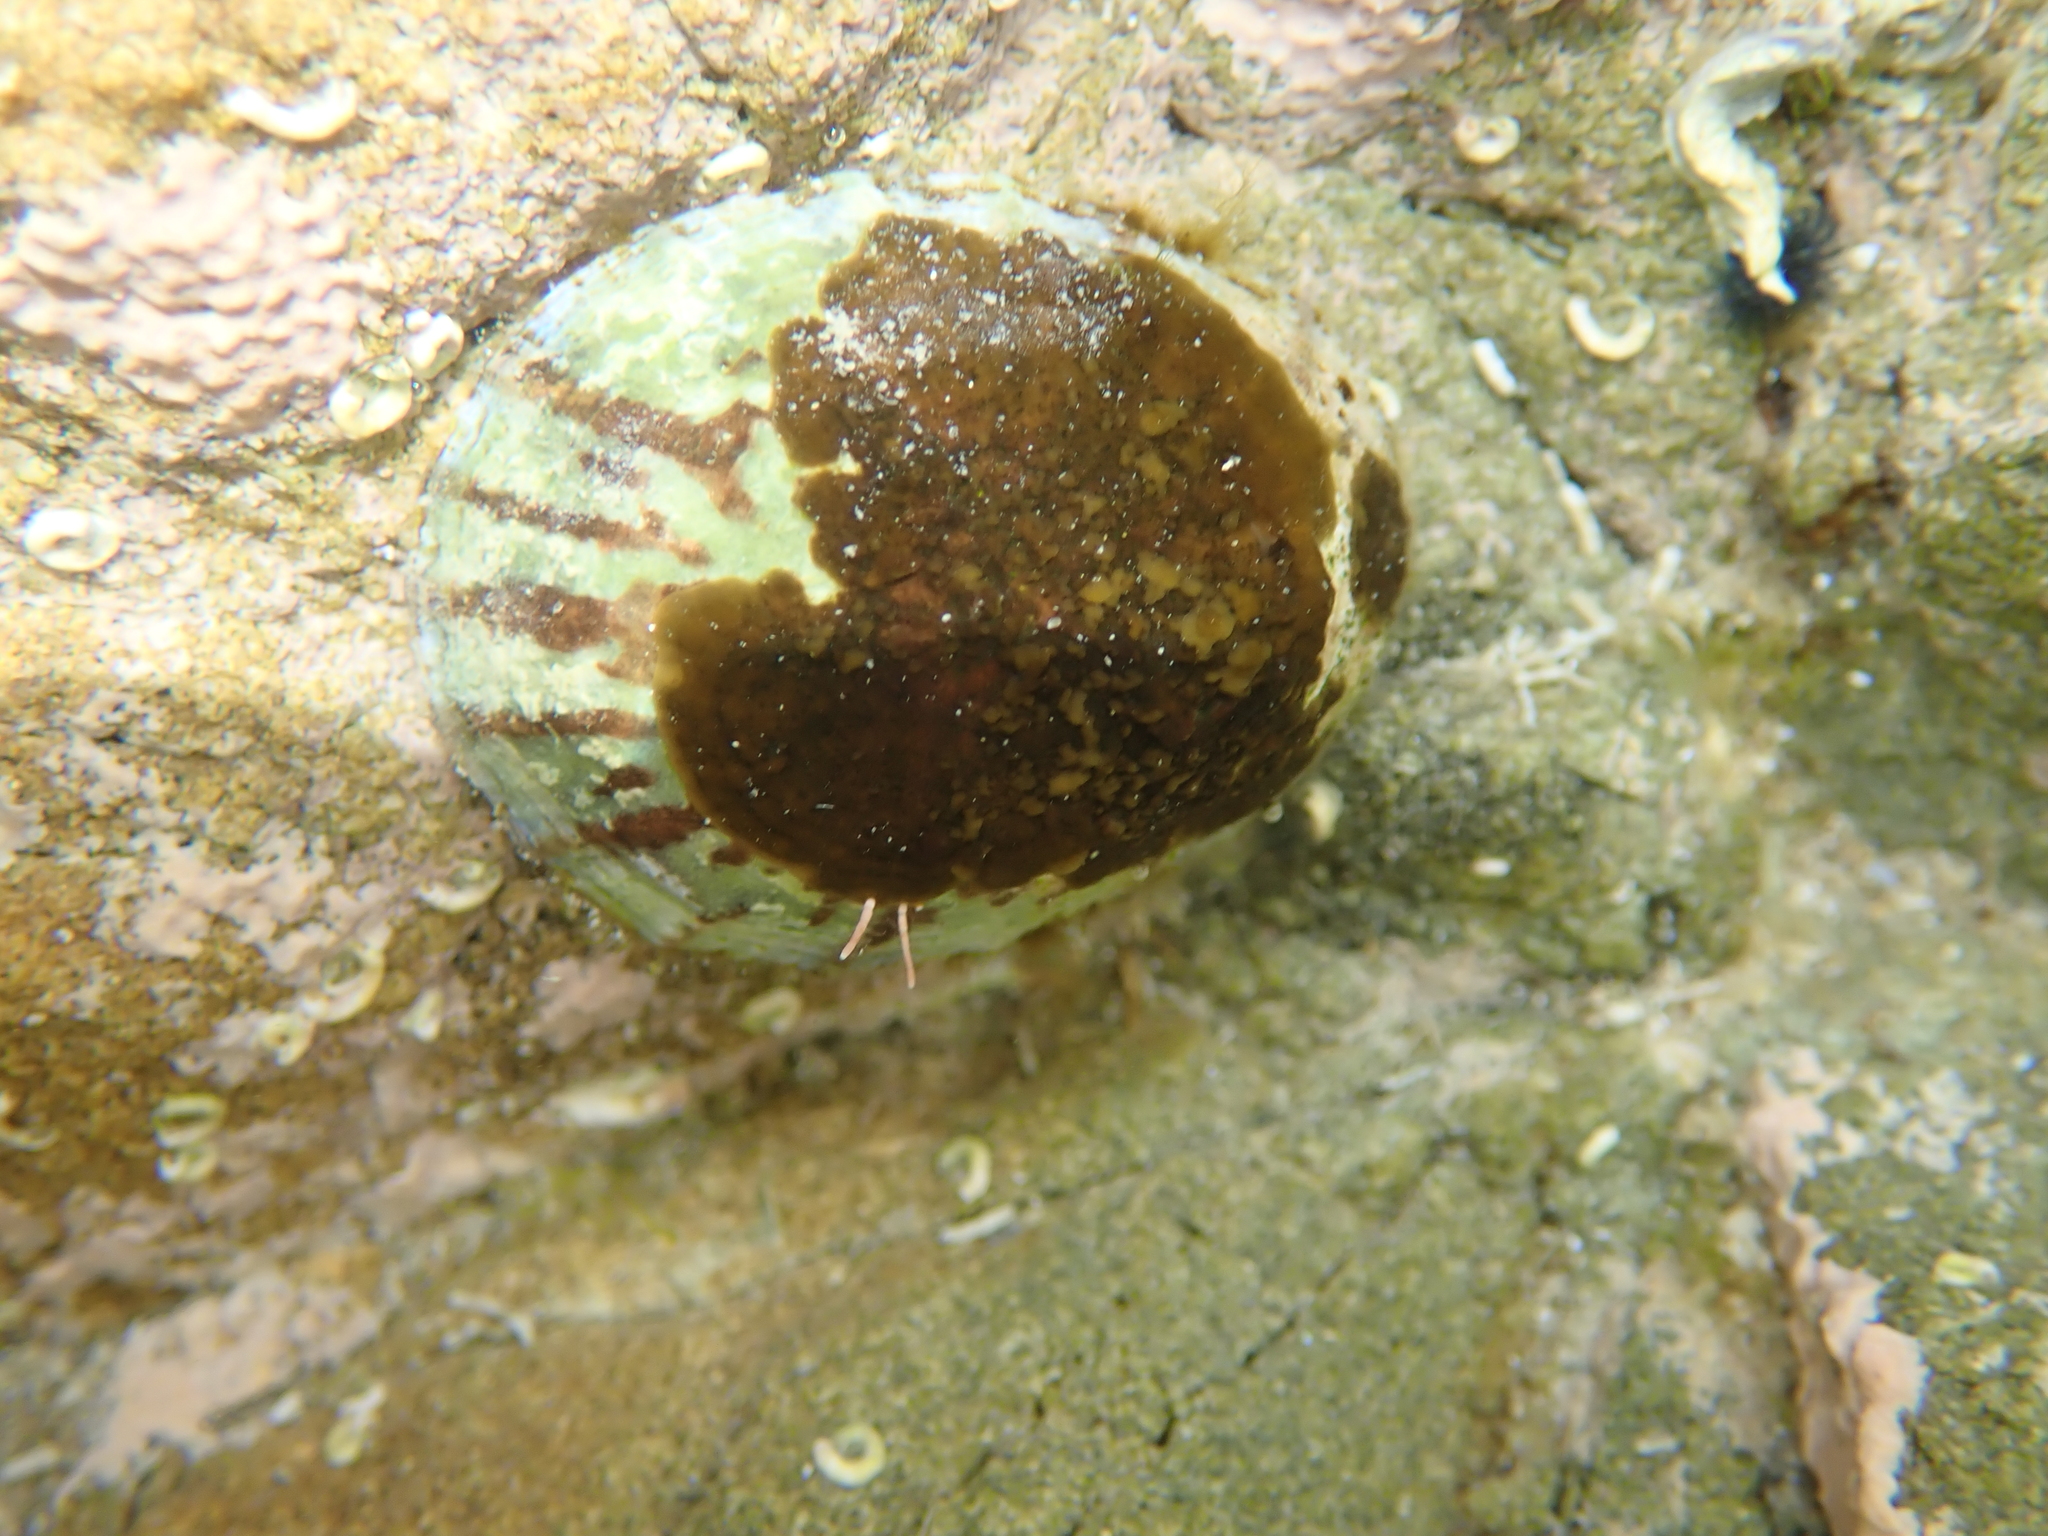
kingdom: Animalia
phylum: Mollusca
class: Gastropoda
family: Nacellidae
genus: Cellana
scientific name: Cellana radians
